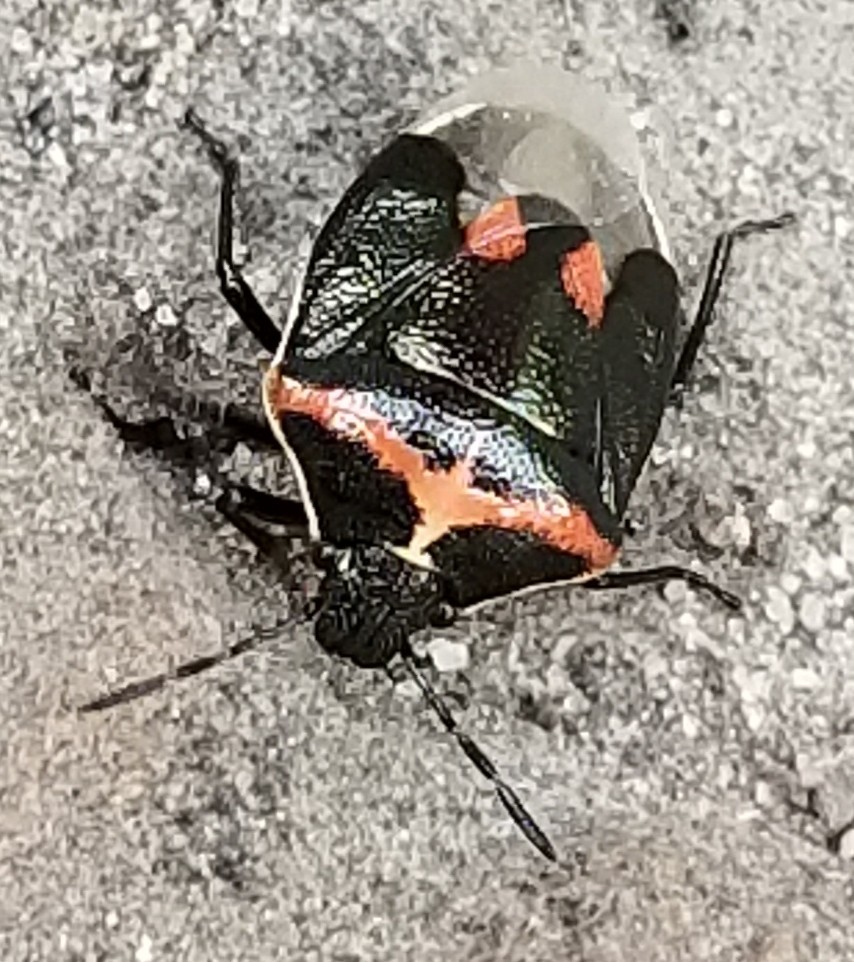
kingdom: Animalia
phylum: Arthropoda
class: Insecta
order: Hemiptera
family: Pentatomidae
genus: Cosmopepla
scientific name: Cosmopepla lintneriana
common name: Twice-stabbed stink bug
